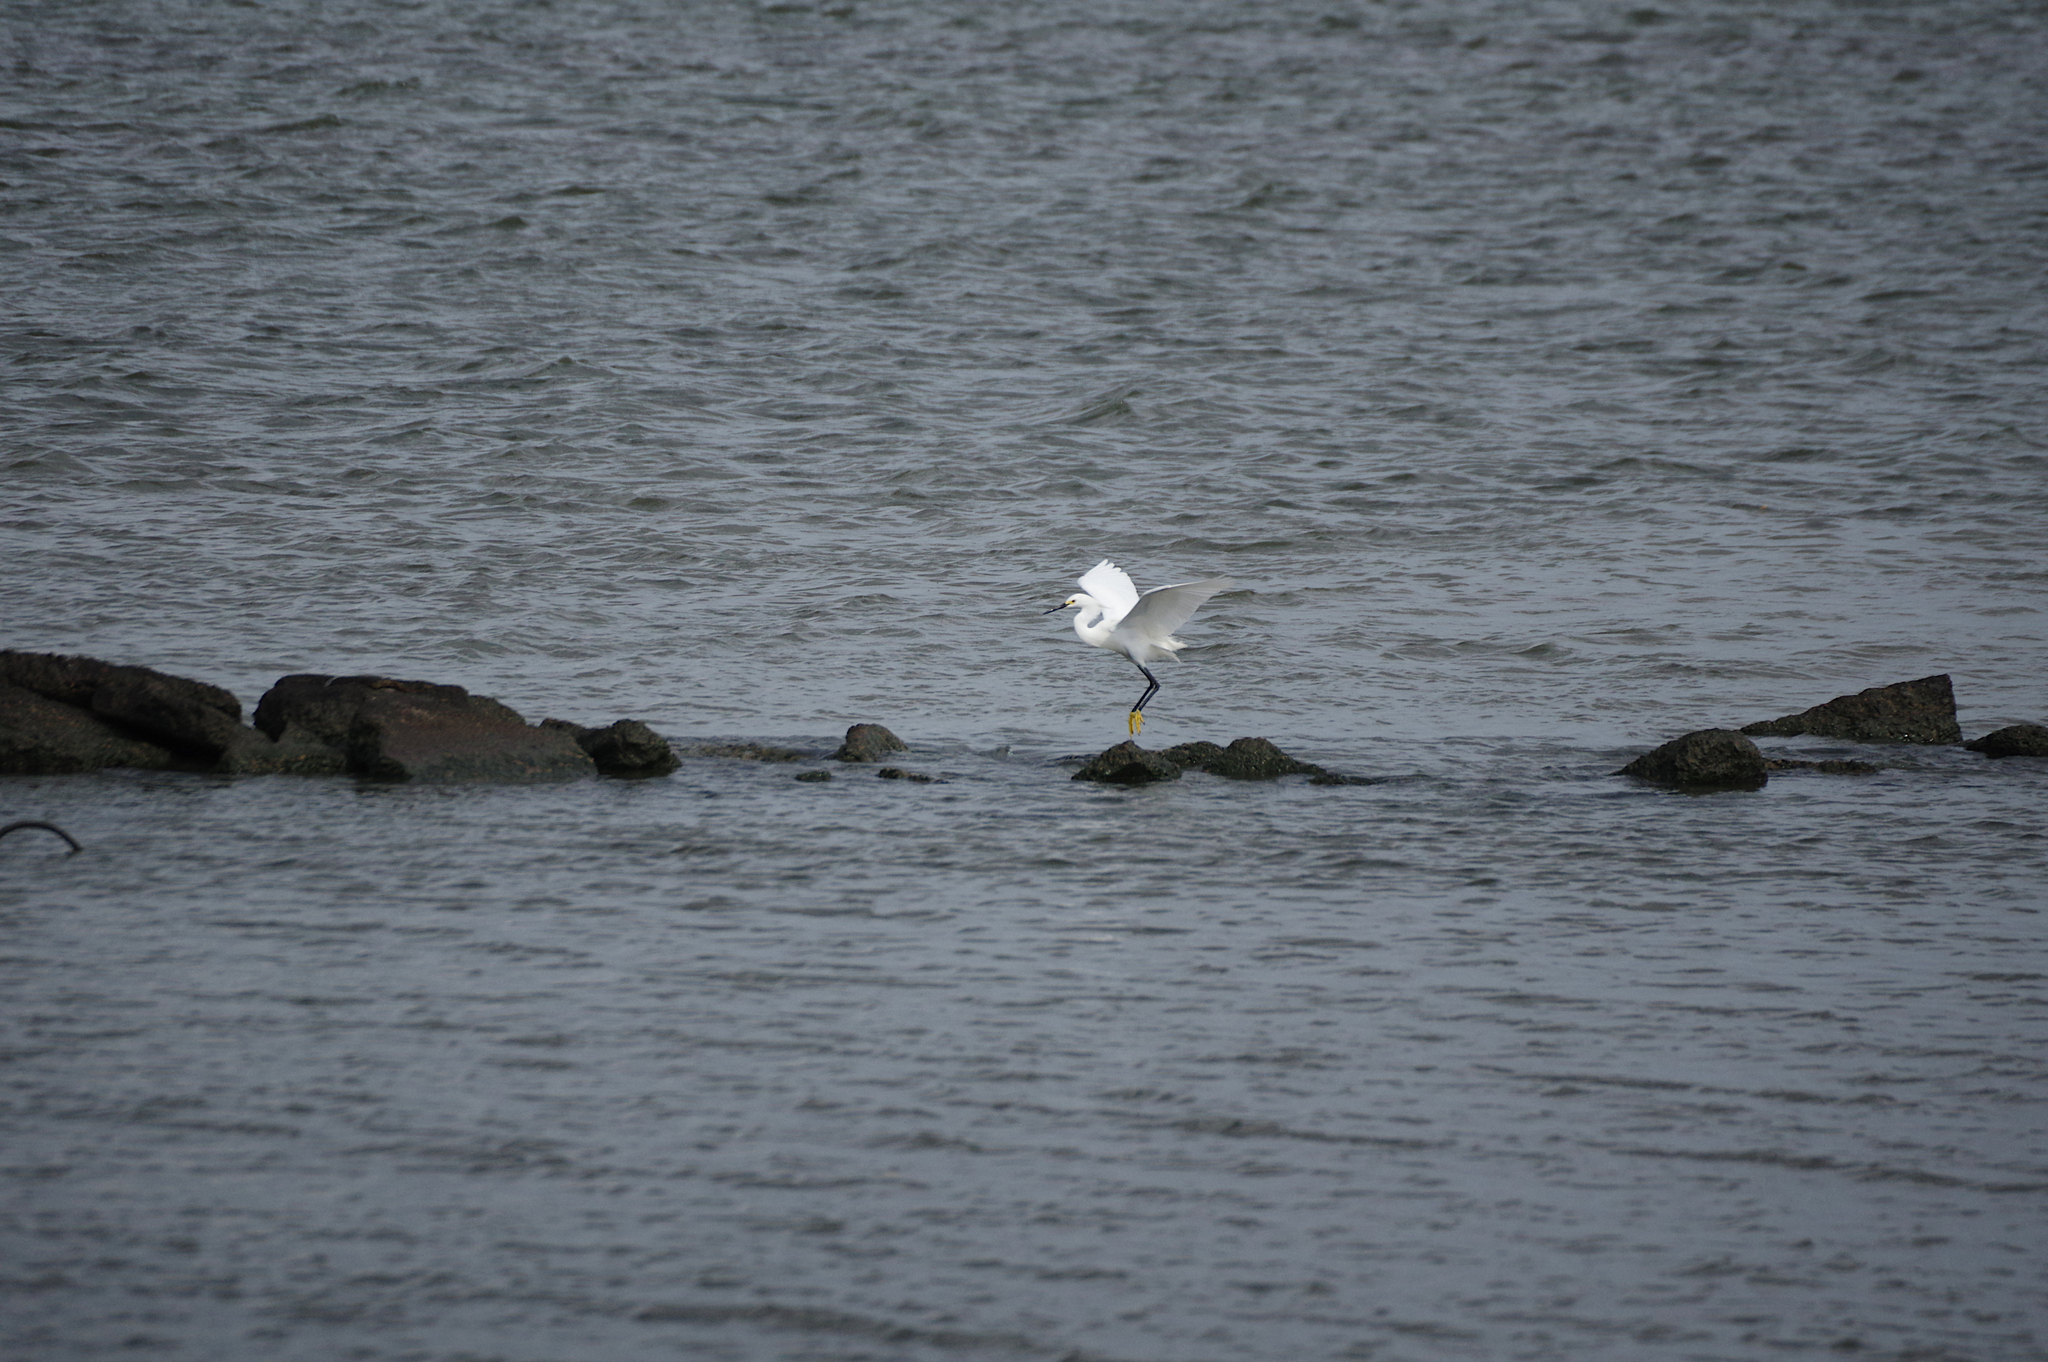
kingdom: Animalia
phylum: Chordata
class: Aves
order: Pelecaniformes
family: Ardeidae
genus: Egretta
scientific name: Egretta thula
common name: Snowy egret
